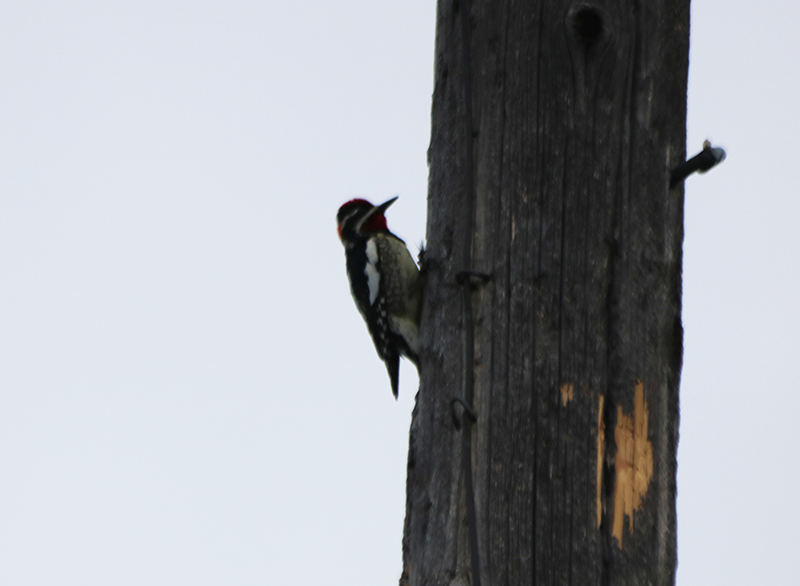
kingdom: Animalia
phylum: Chordata
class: Aves
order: Piciformes
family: Picidae
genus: Sphyrapicus
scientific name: Sphyrapicus nuchalis
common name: Red-naped sapsucker
